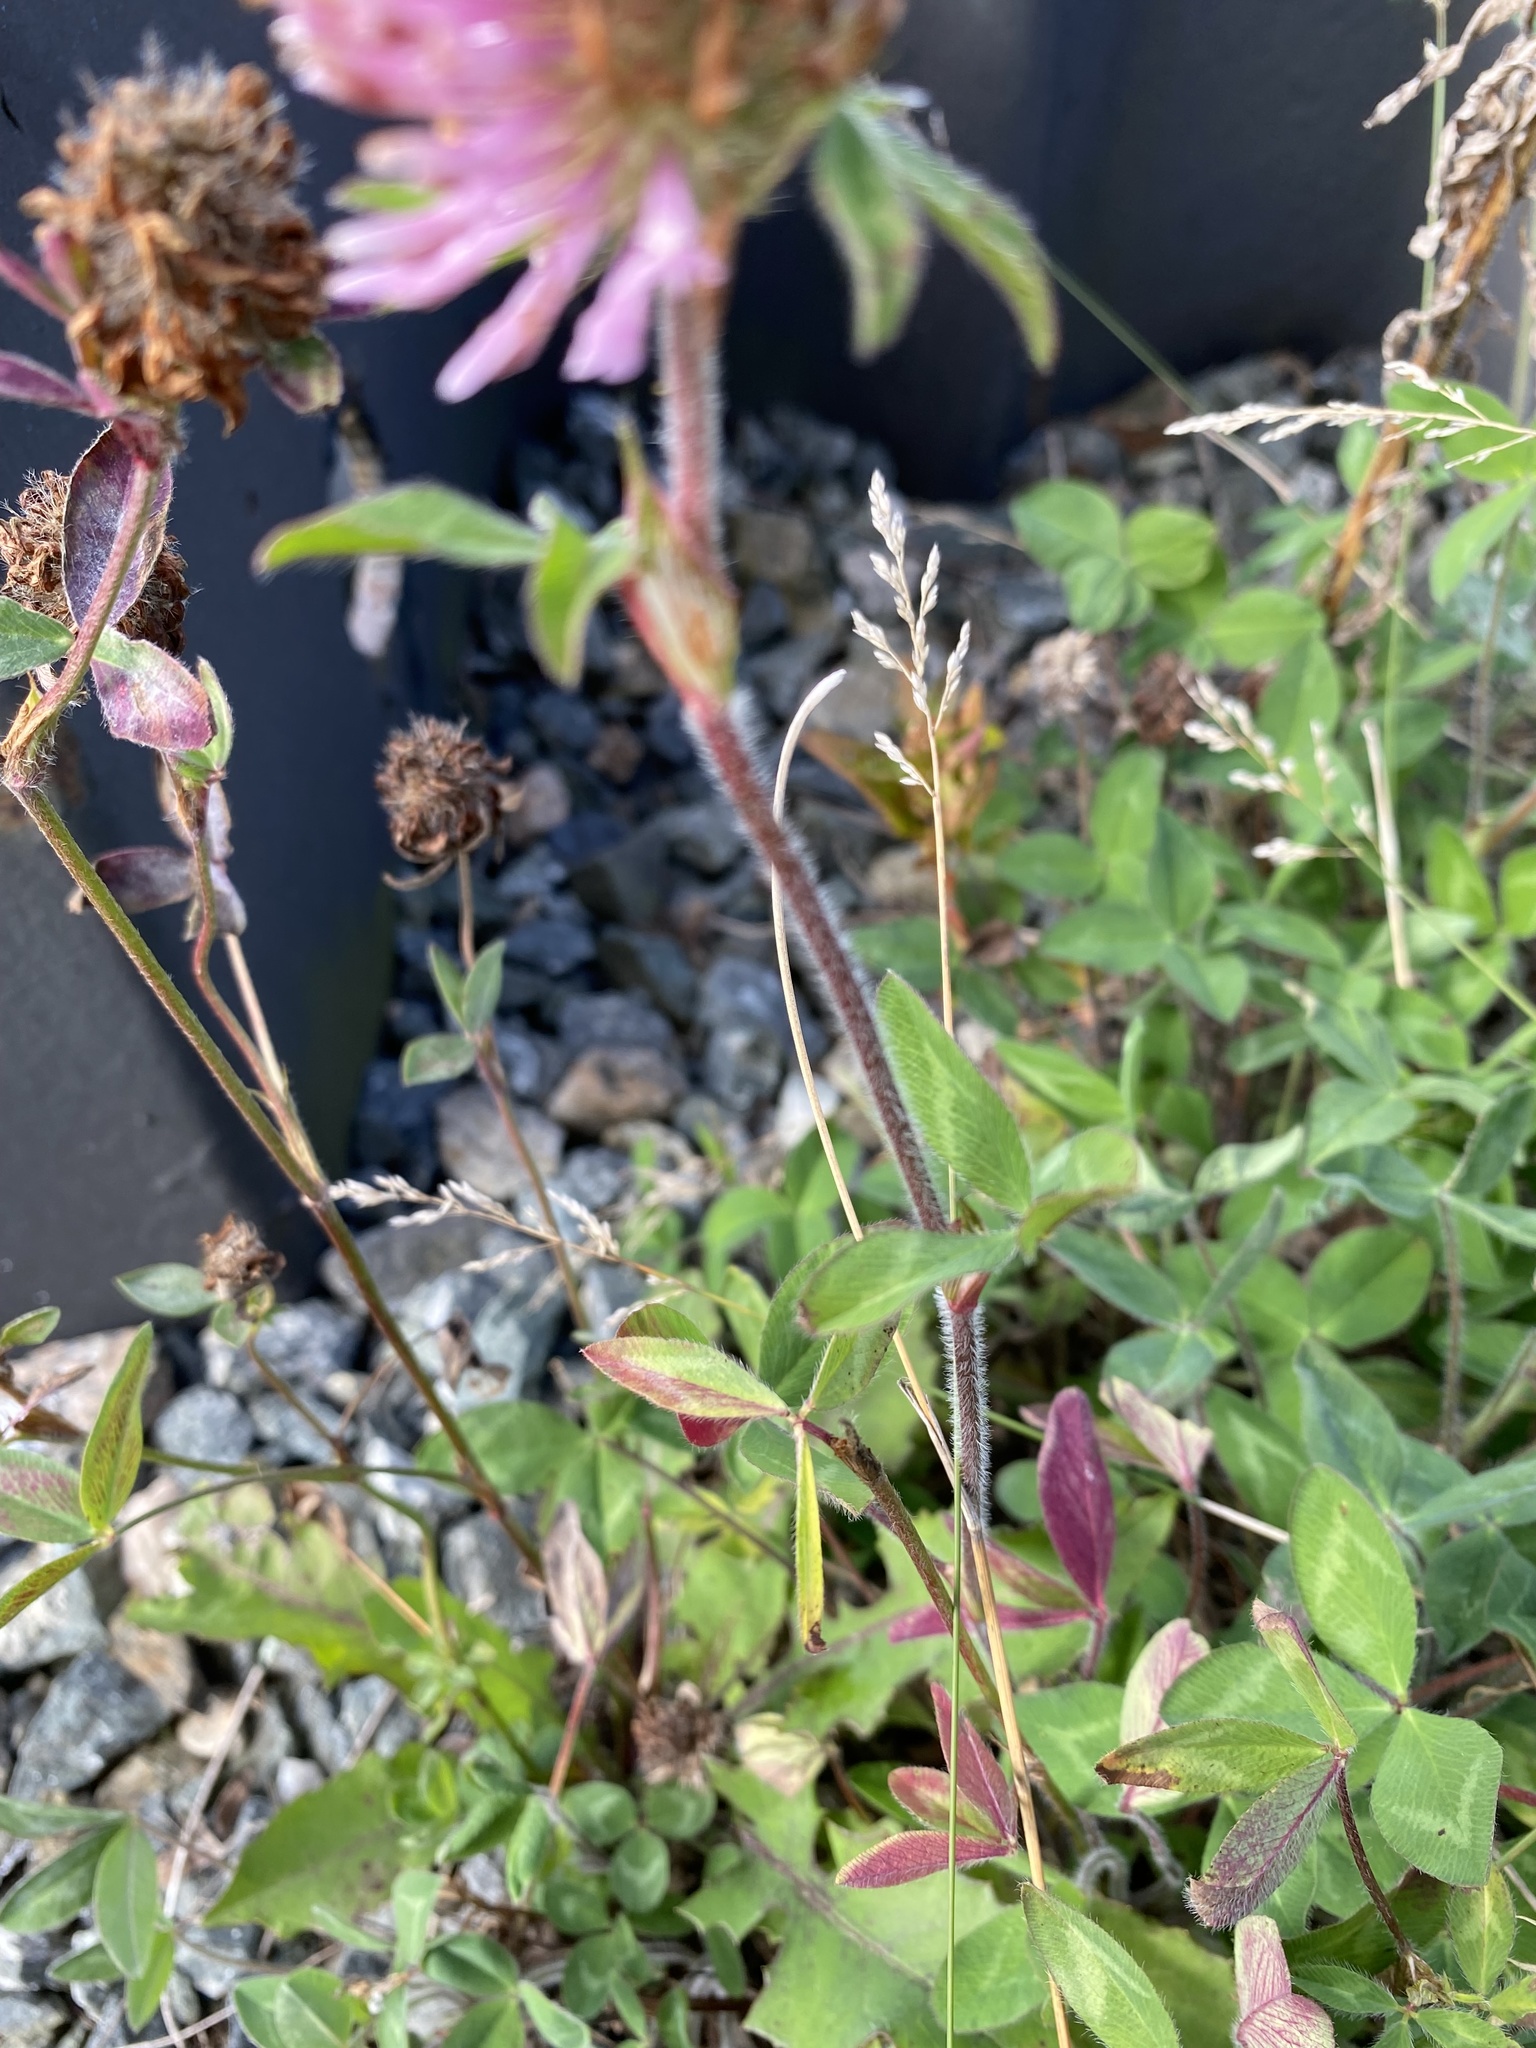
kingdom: Plantae
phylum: Tracheophyta
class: Magnoliopsida
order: Fabales
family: Fabaceae
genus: Trifolium
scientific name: Trifolium pratense
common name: Red clover
